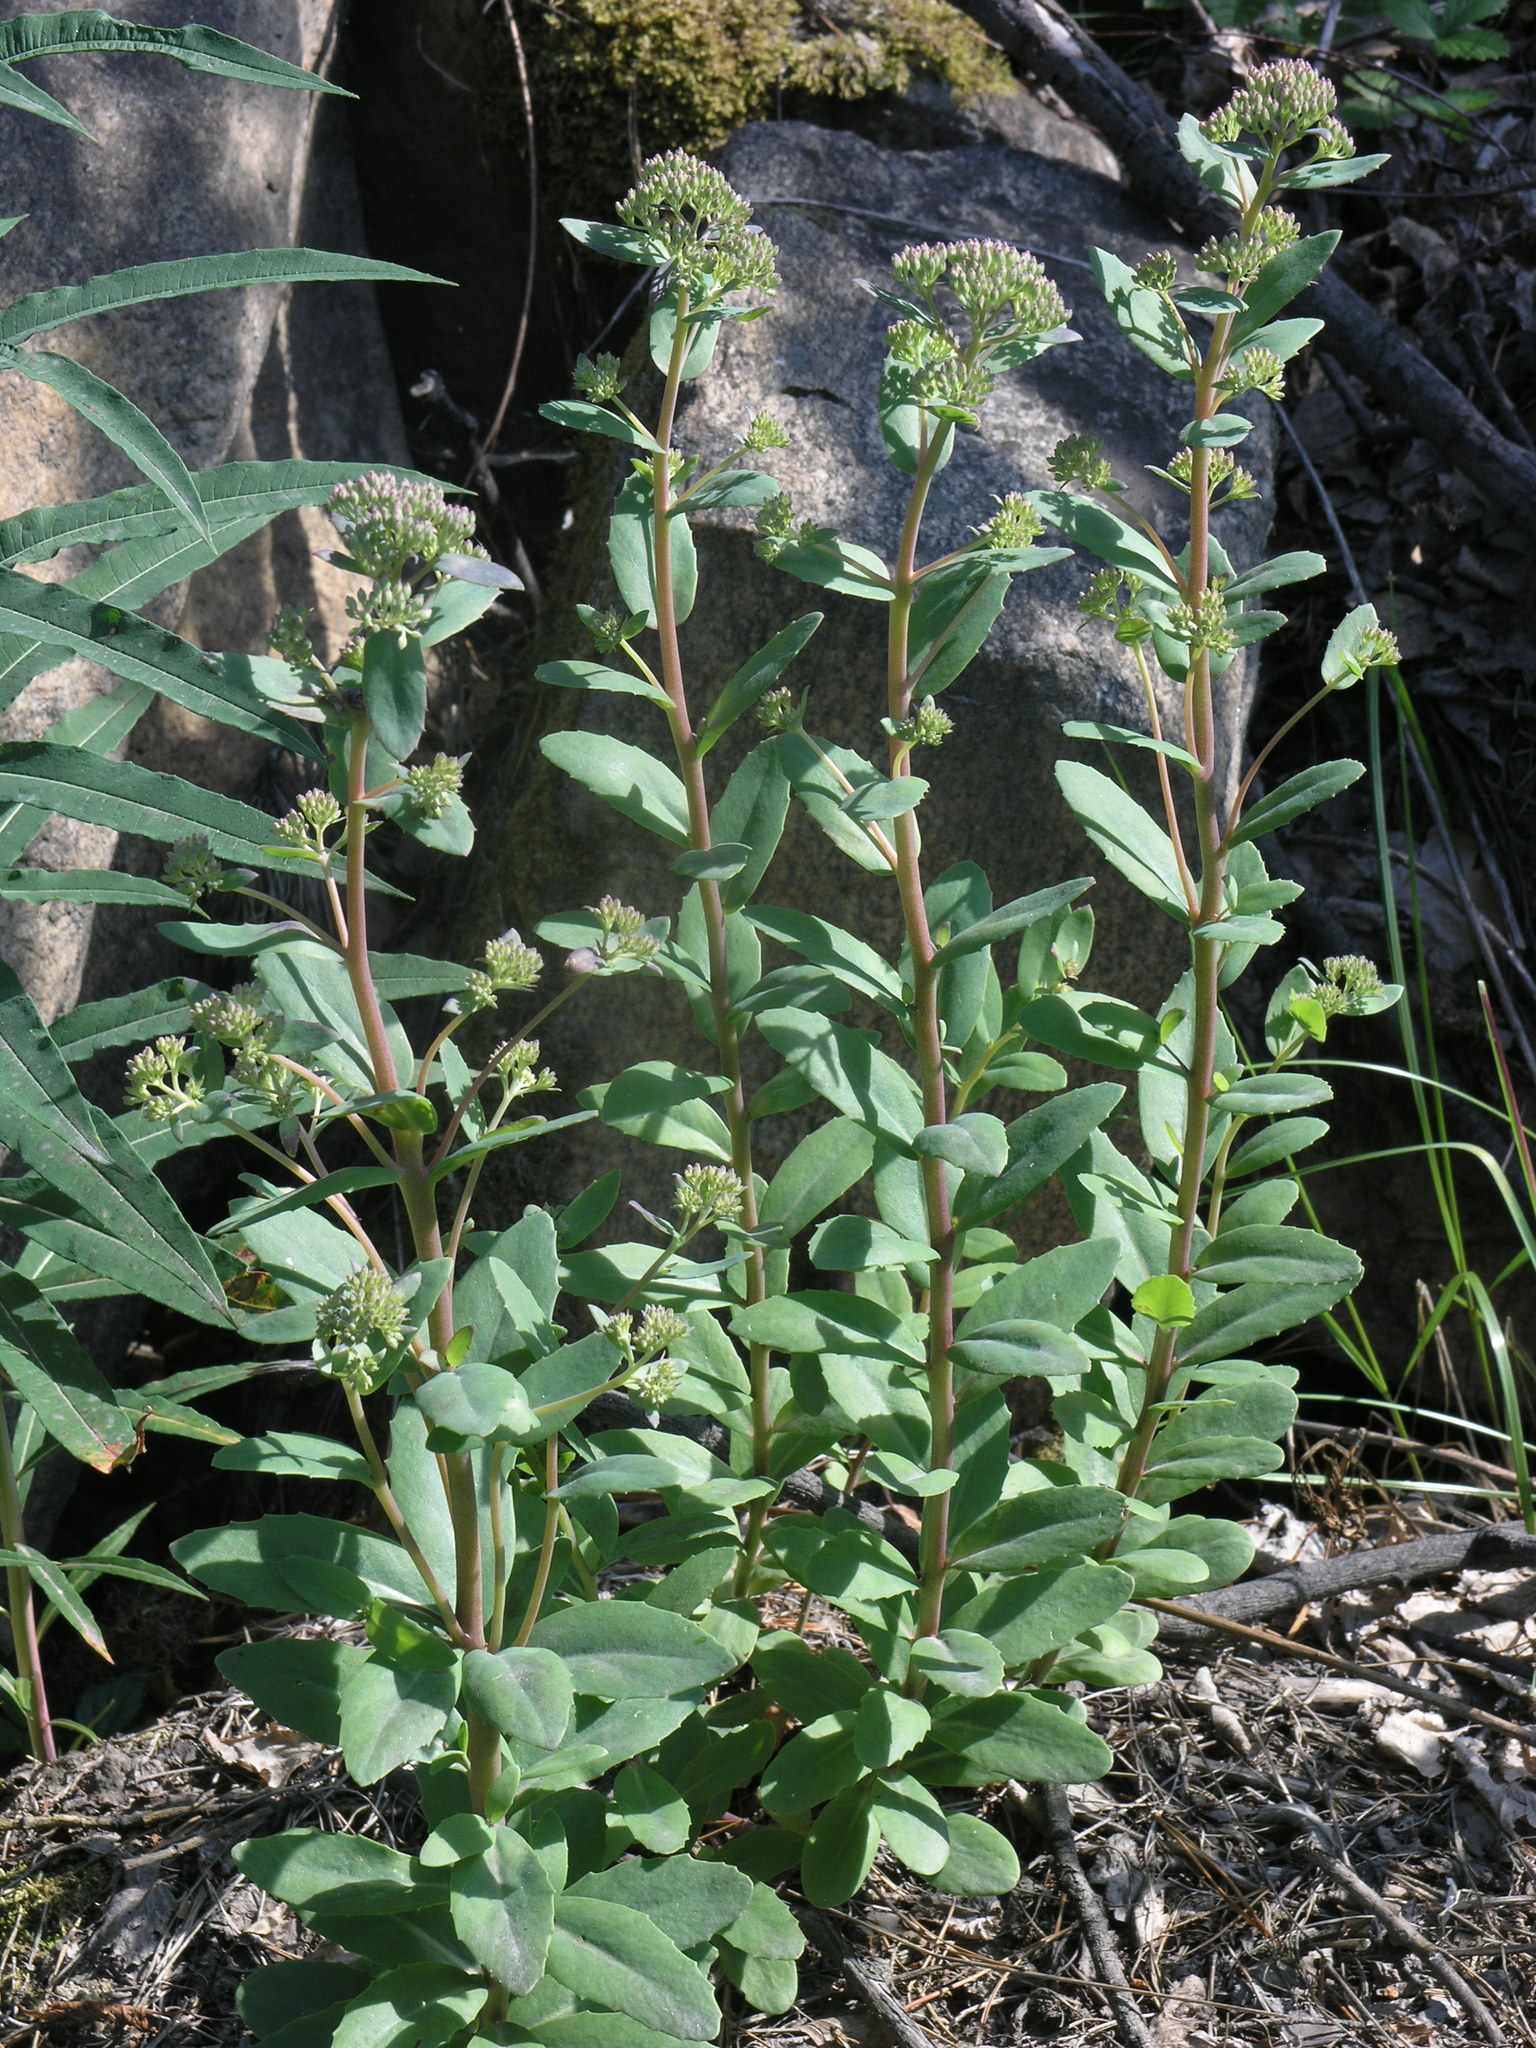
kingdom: Plantae
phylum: Tracheophyta
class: Magnoliopsida
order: Saxifragales
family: Crassulaceae
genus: Hylotelephium
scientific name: Hylotelephium telephium
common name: Live-forever
